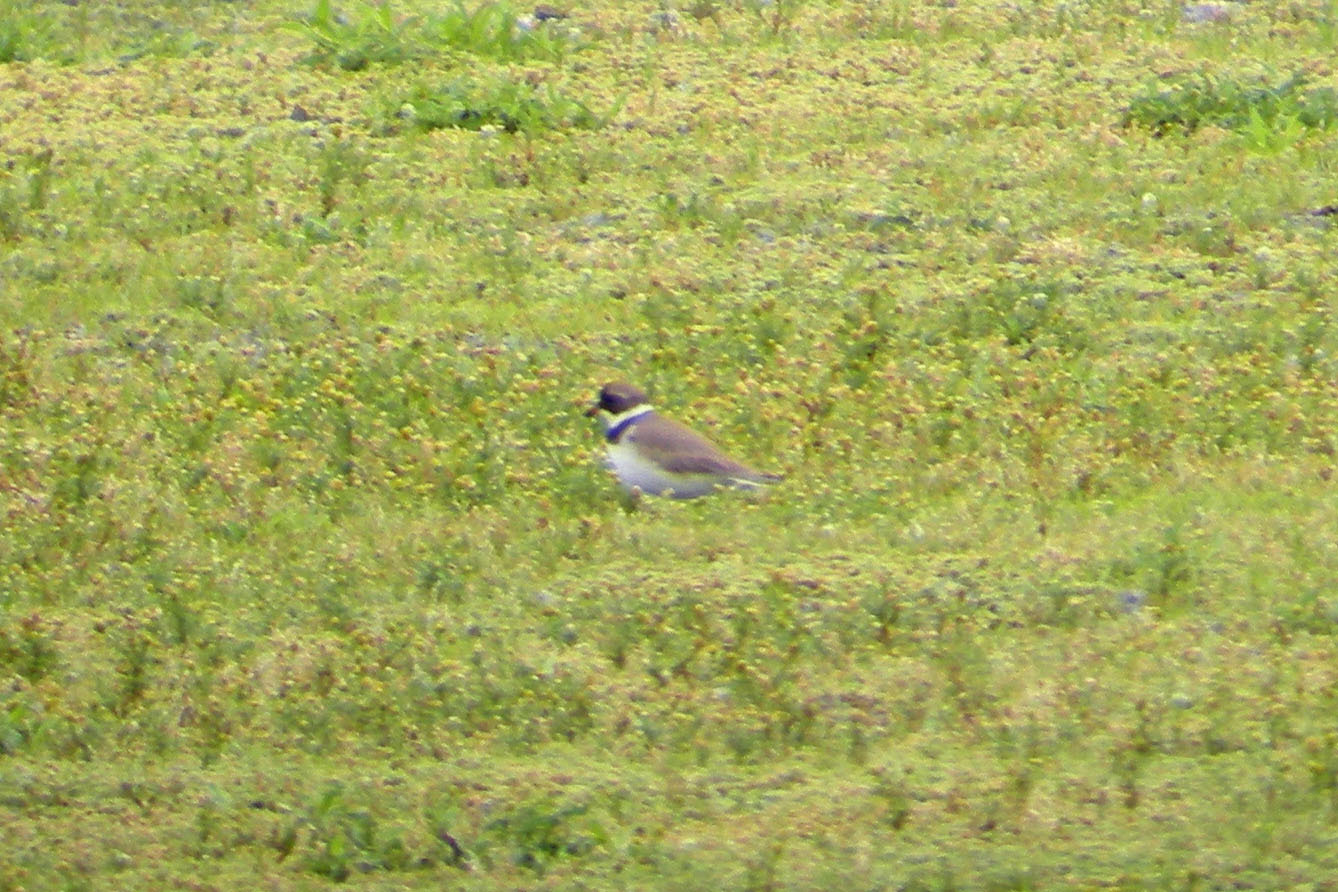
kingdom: Animalia
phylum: Chordata
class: Aves
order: Charadriiformes
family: Charadriidae
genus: Charadrius
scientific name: Charadrius semipalmatus
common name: Semipalmated plover
